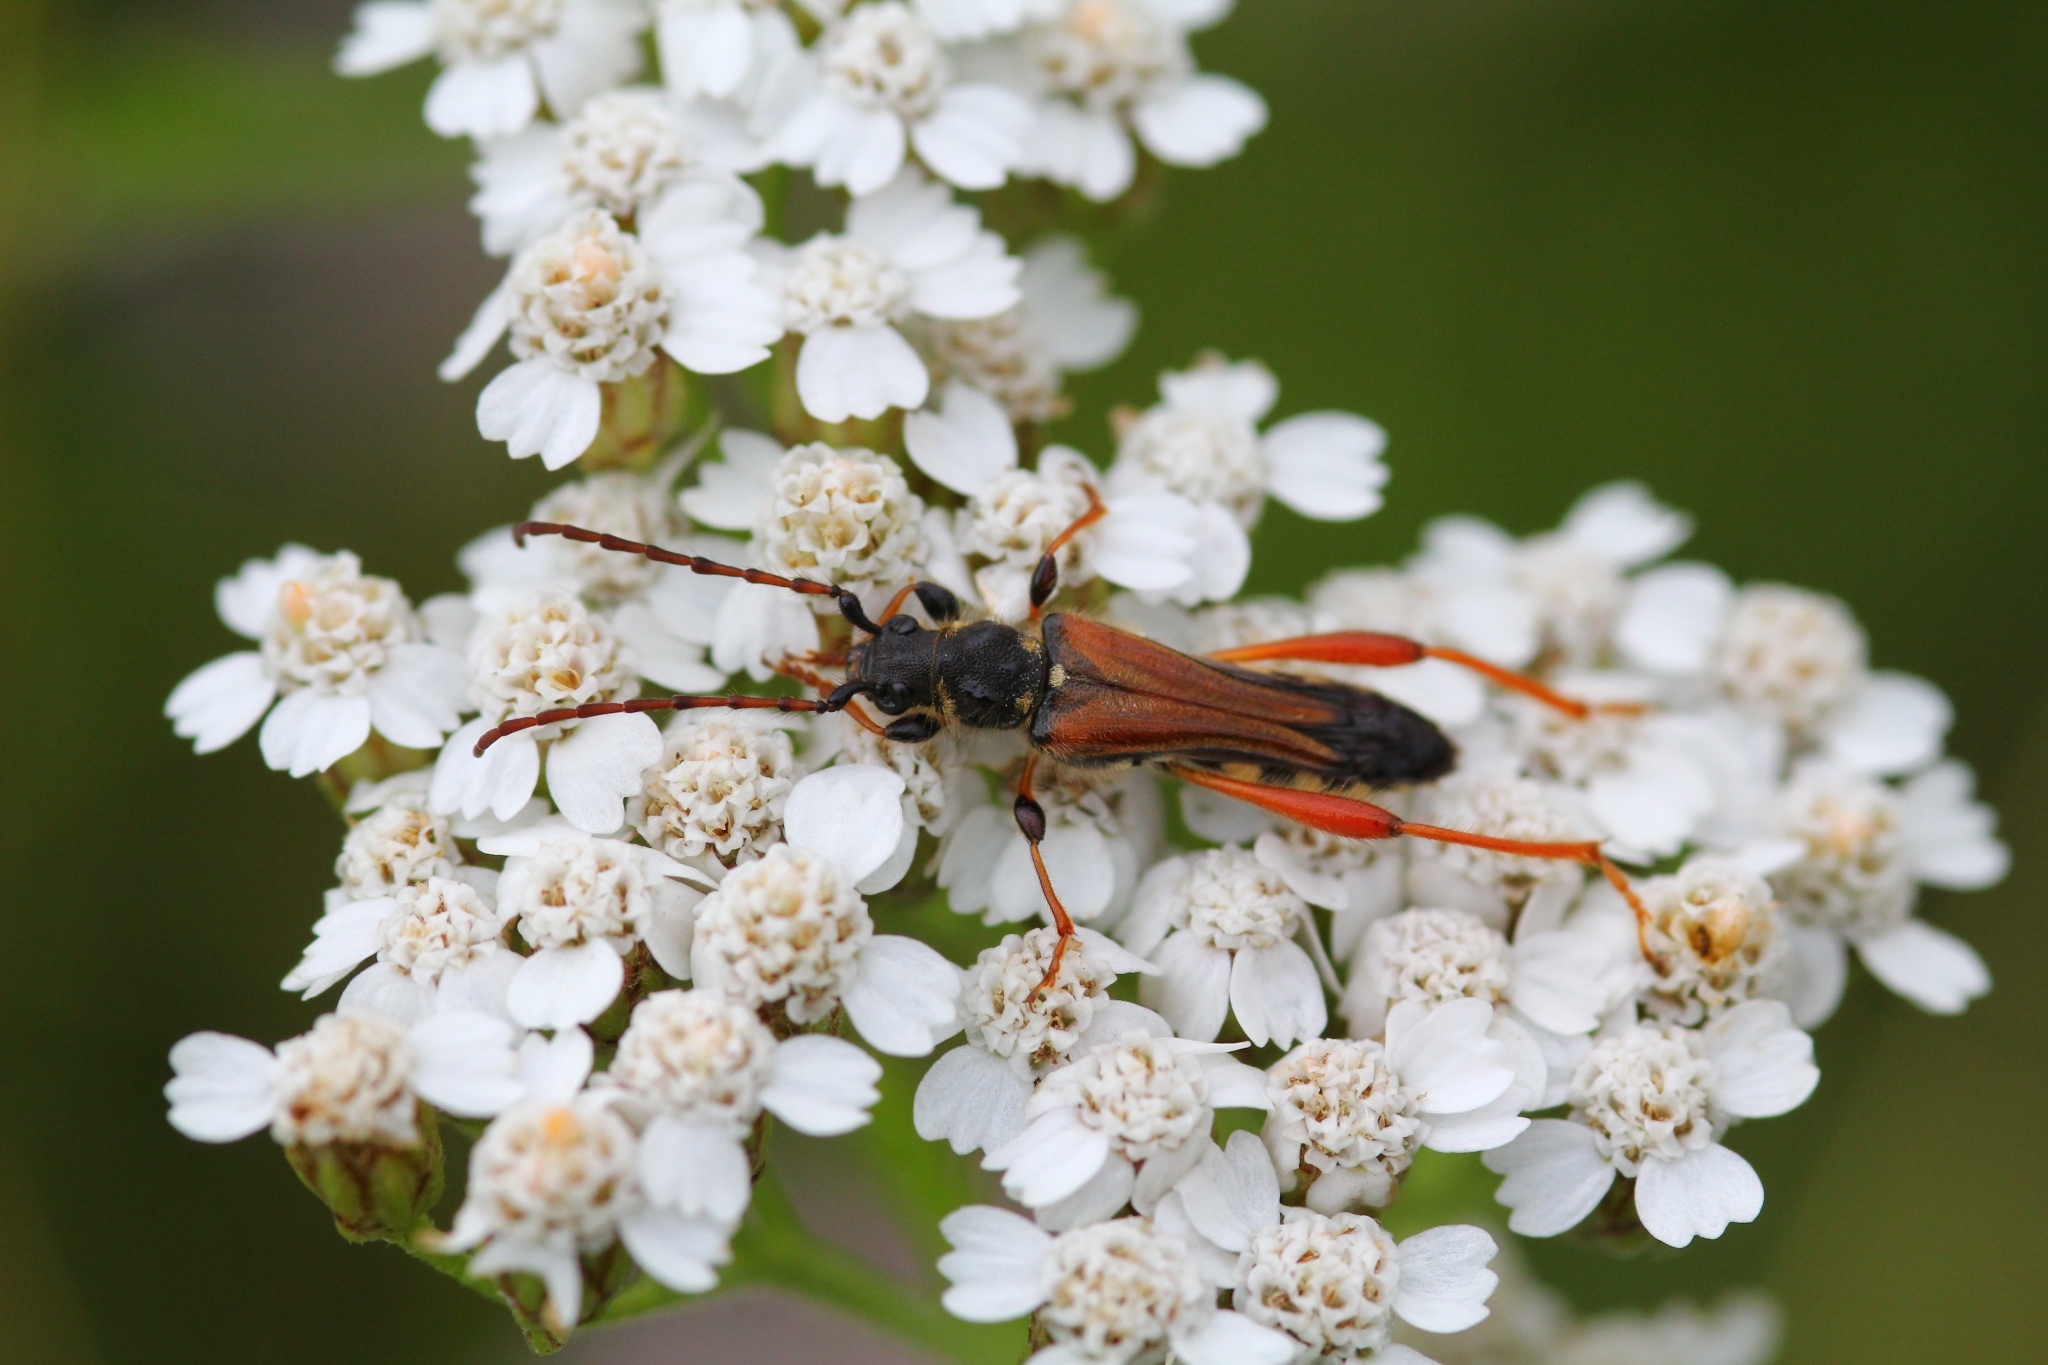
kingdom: Animalia
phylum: Arthropoda
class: Insecta
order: Coleoptera
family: Cerambycidae
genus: Stenopterus
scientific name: Stenopterus rufus
